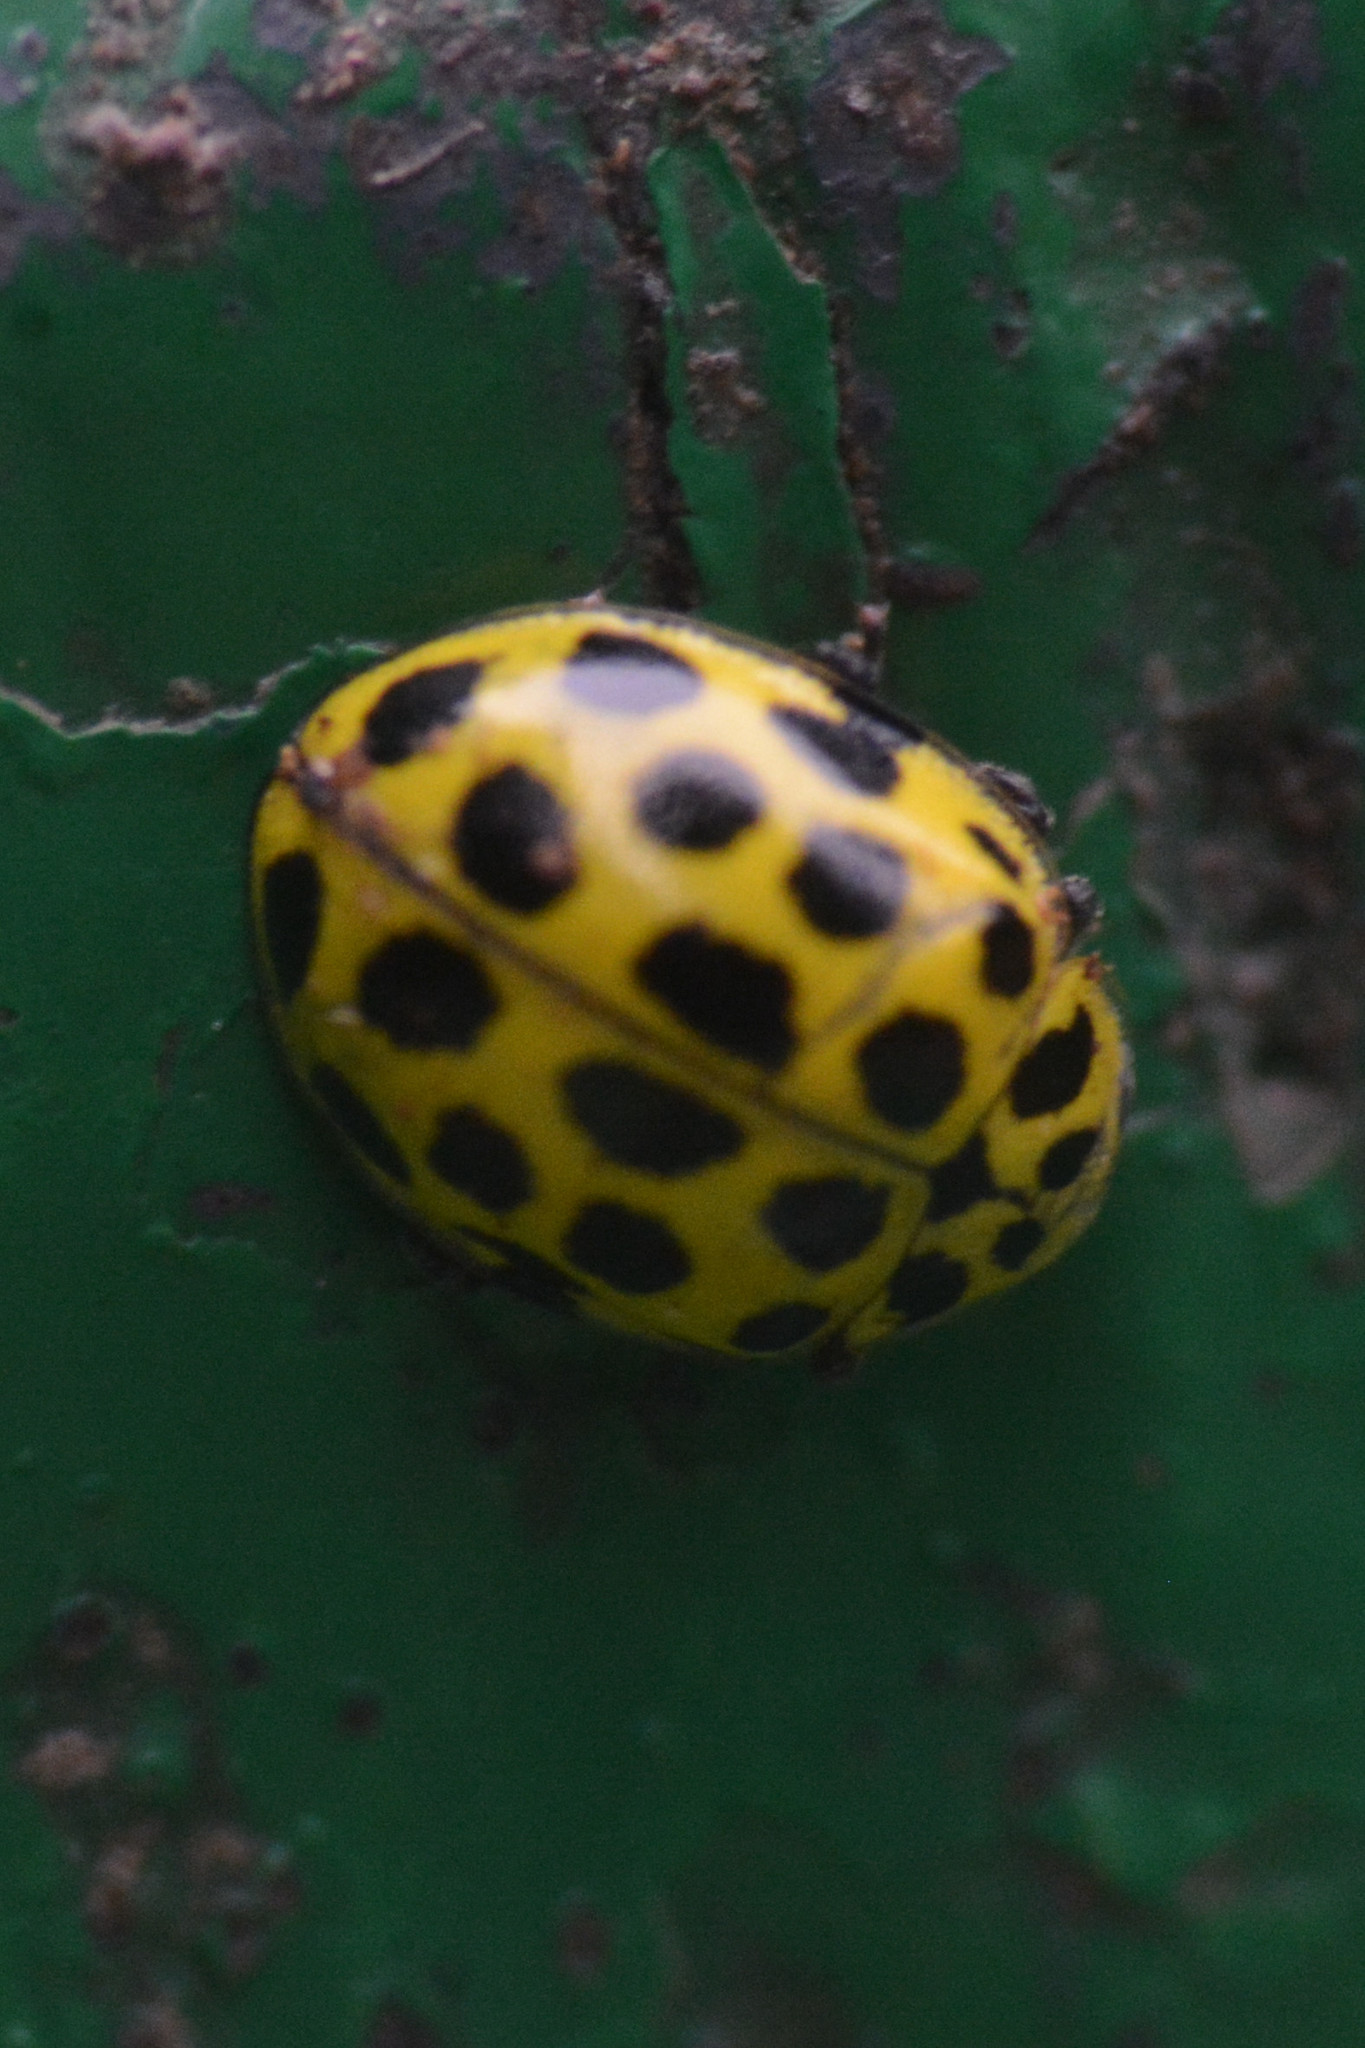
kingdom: Animalia
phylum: Arthropoda
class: Insecta
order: Coleoptera
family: Coccinellidae
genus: Psyllobora
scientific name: Psyllobora vigintiduopunctata
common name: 22-spot ladybird
